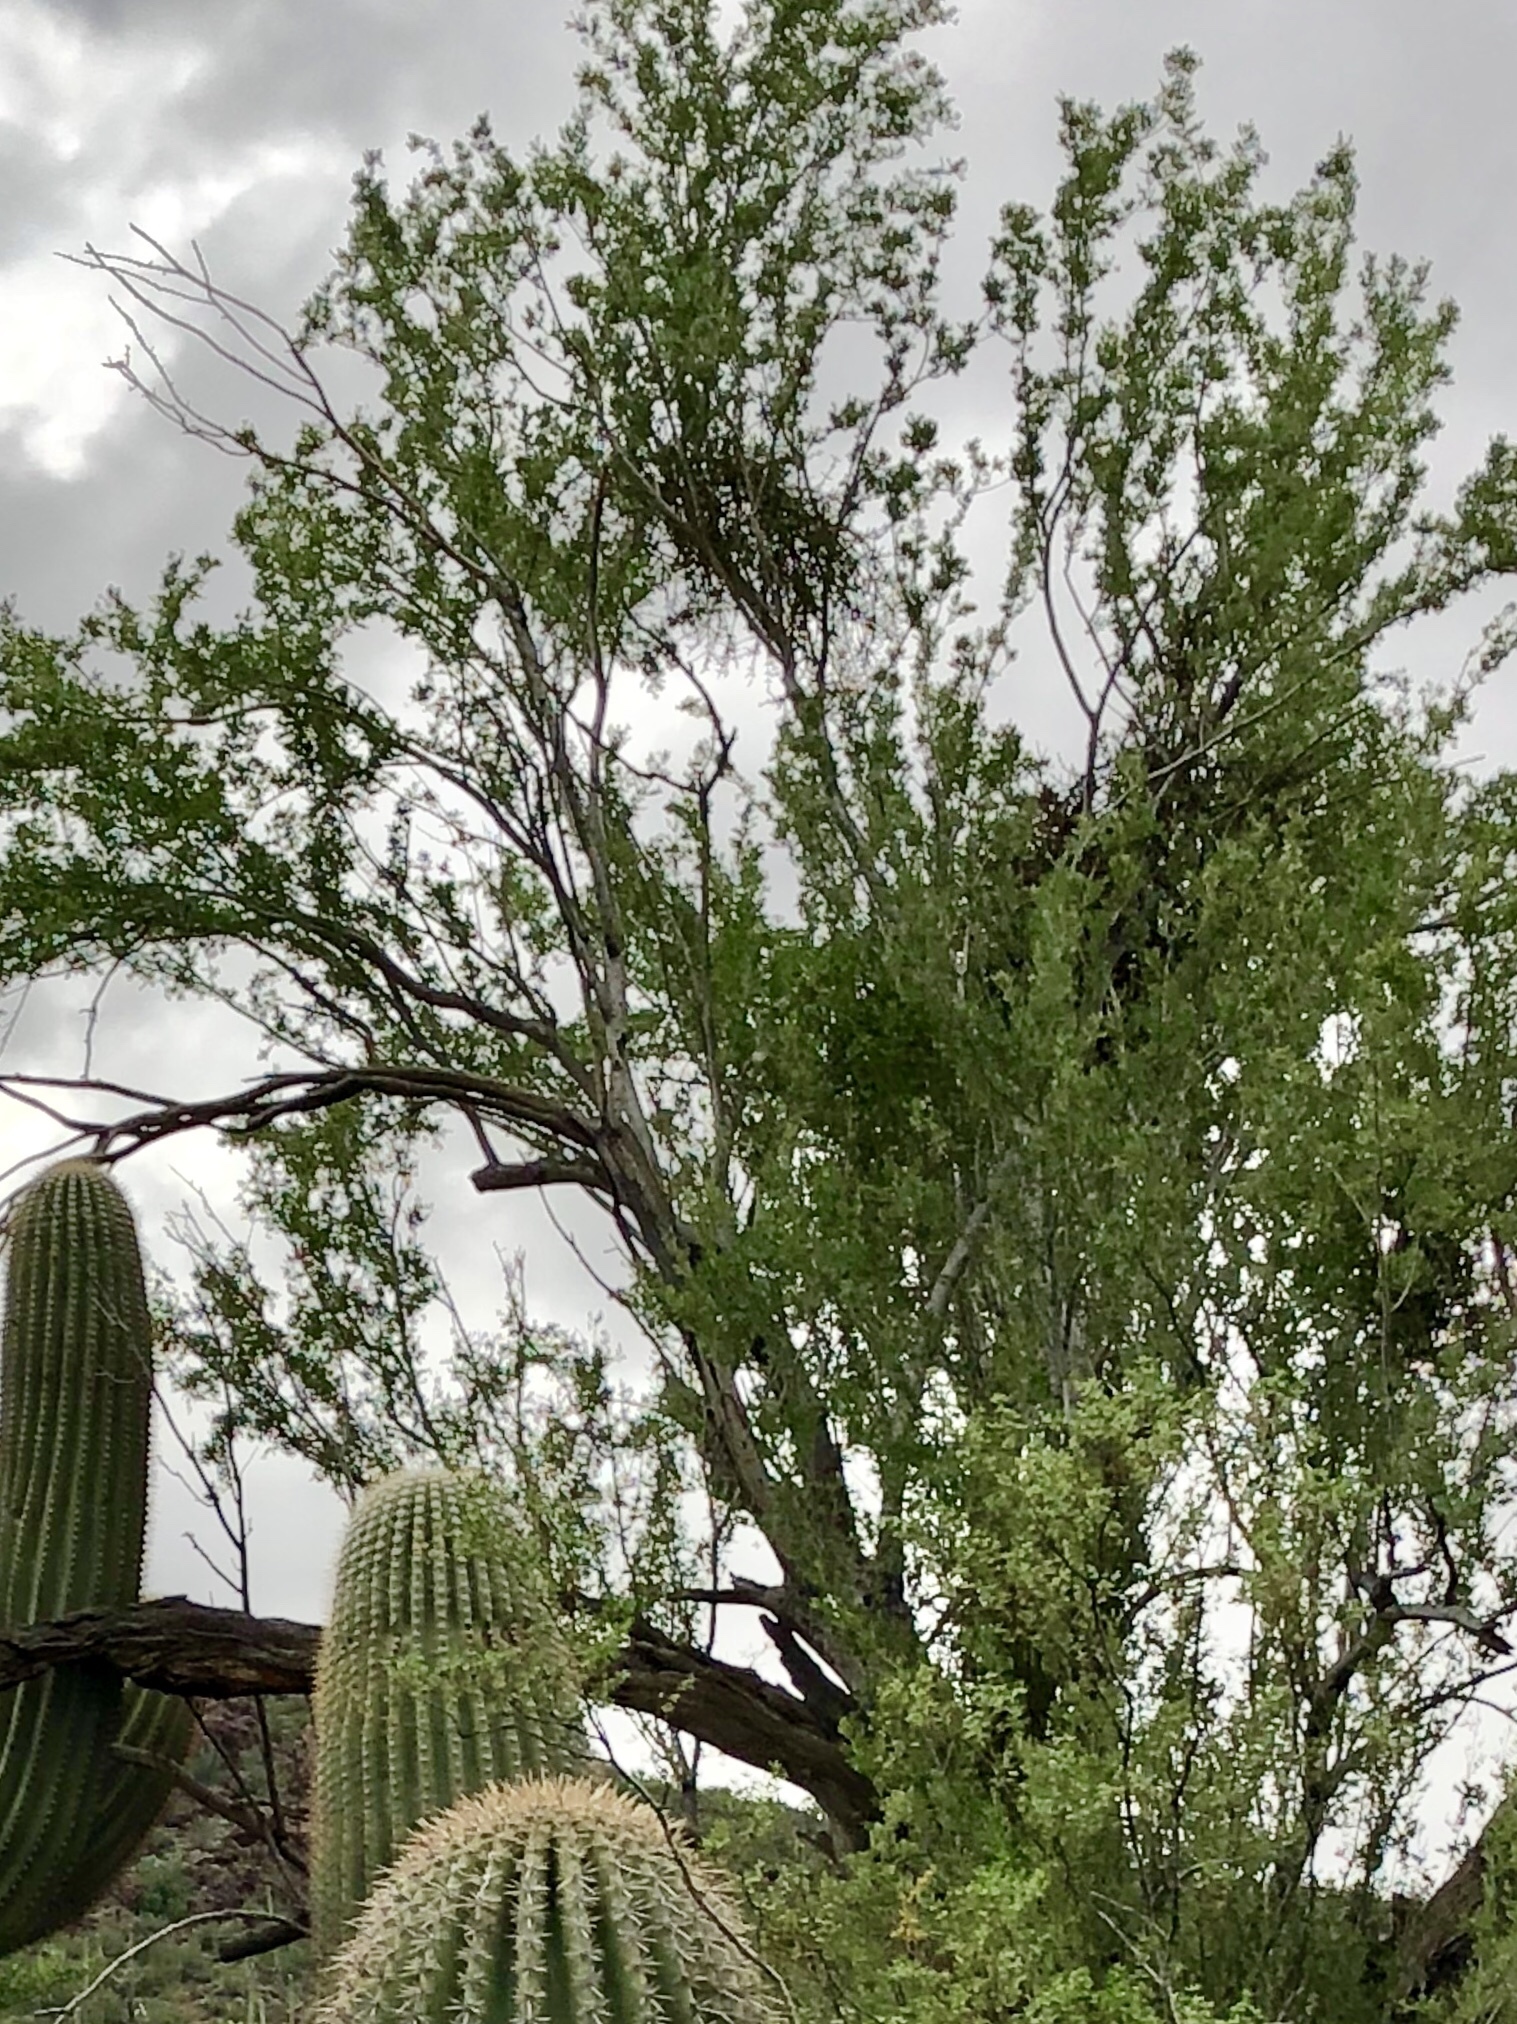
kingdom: Plantae
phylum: Tracheophyta
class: Magnoliopsida
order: Fabales
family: Fabaceae
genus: Olneya
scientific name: Olneya tesota
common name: Desert ironwood
